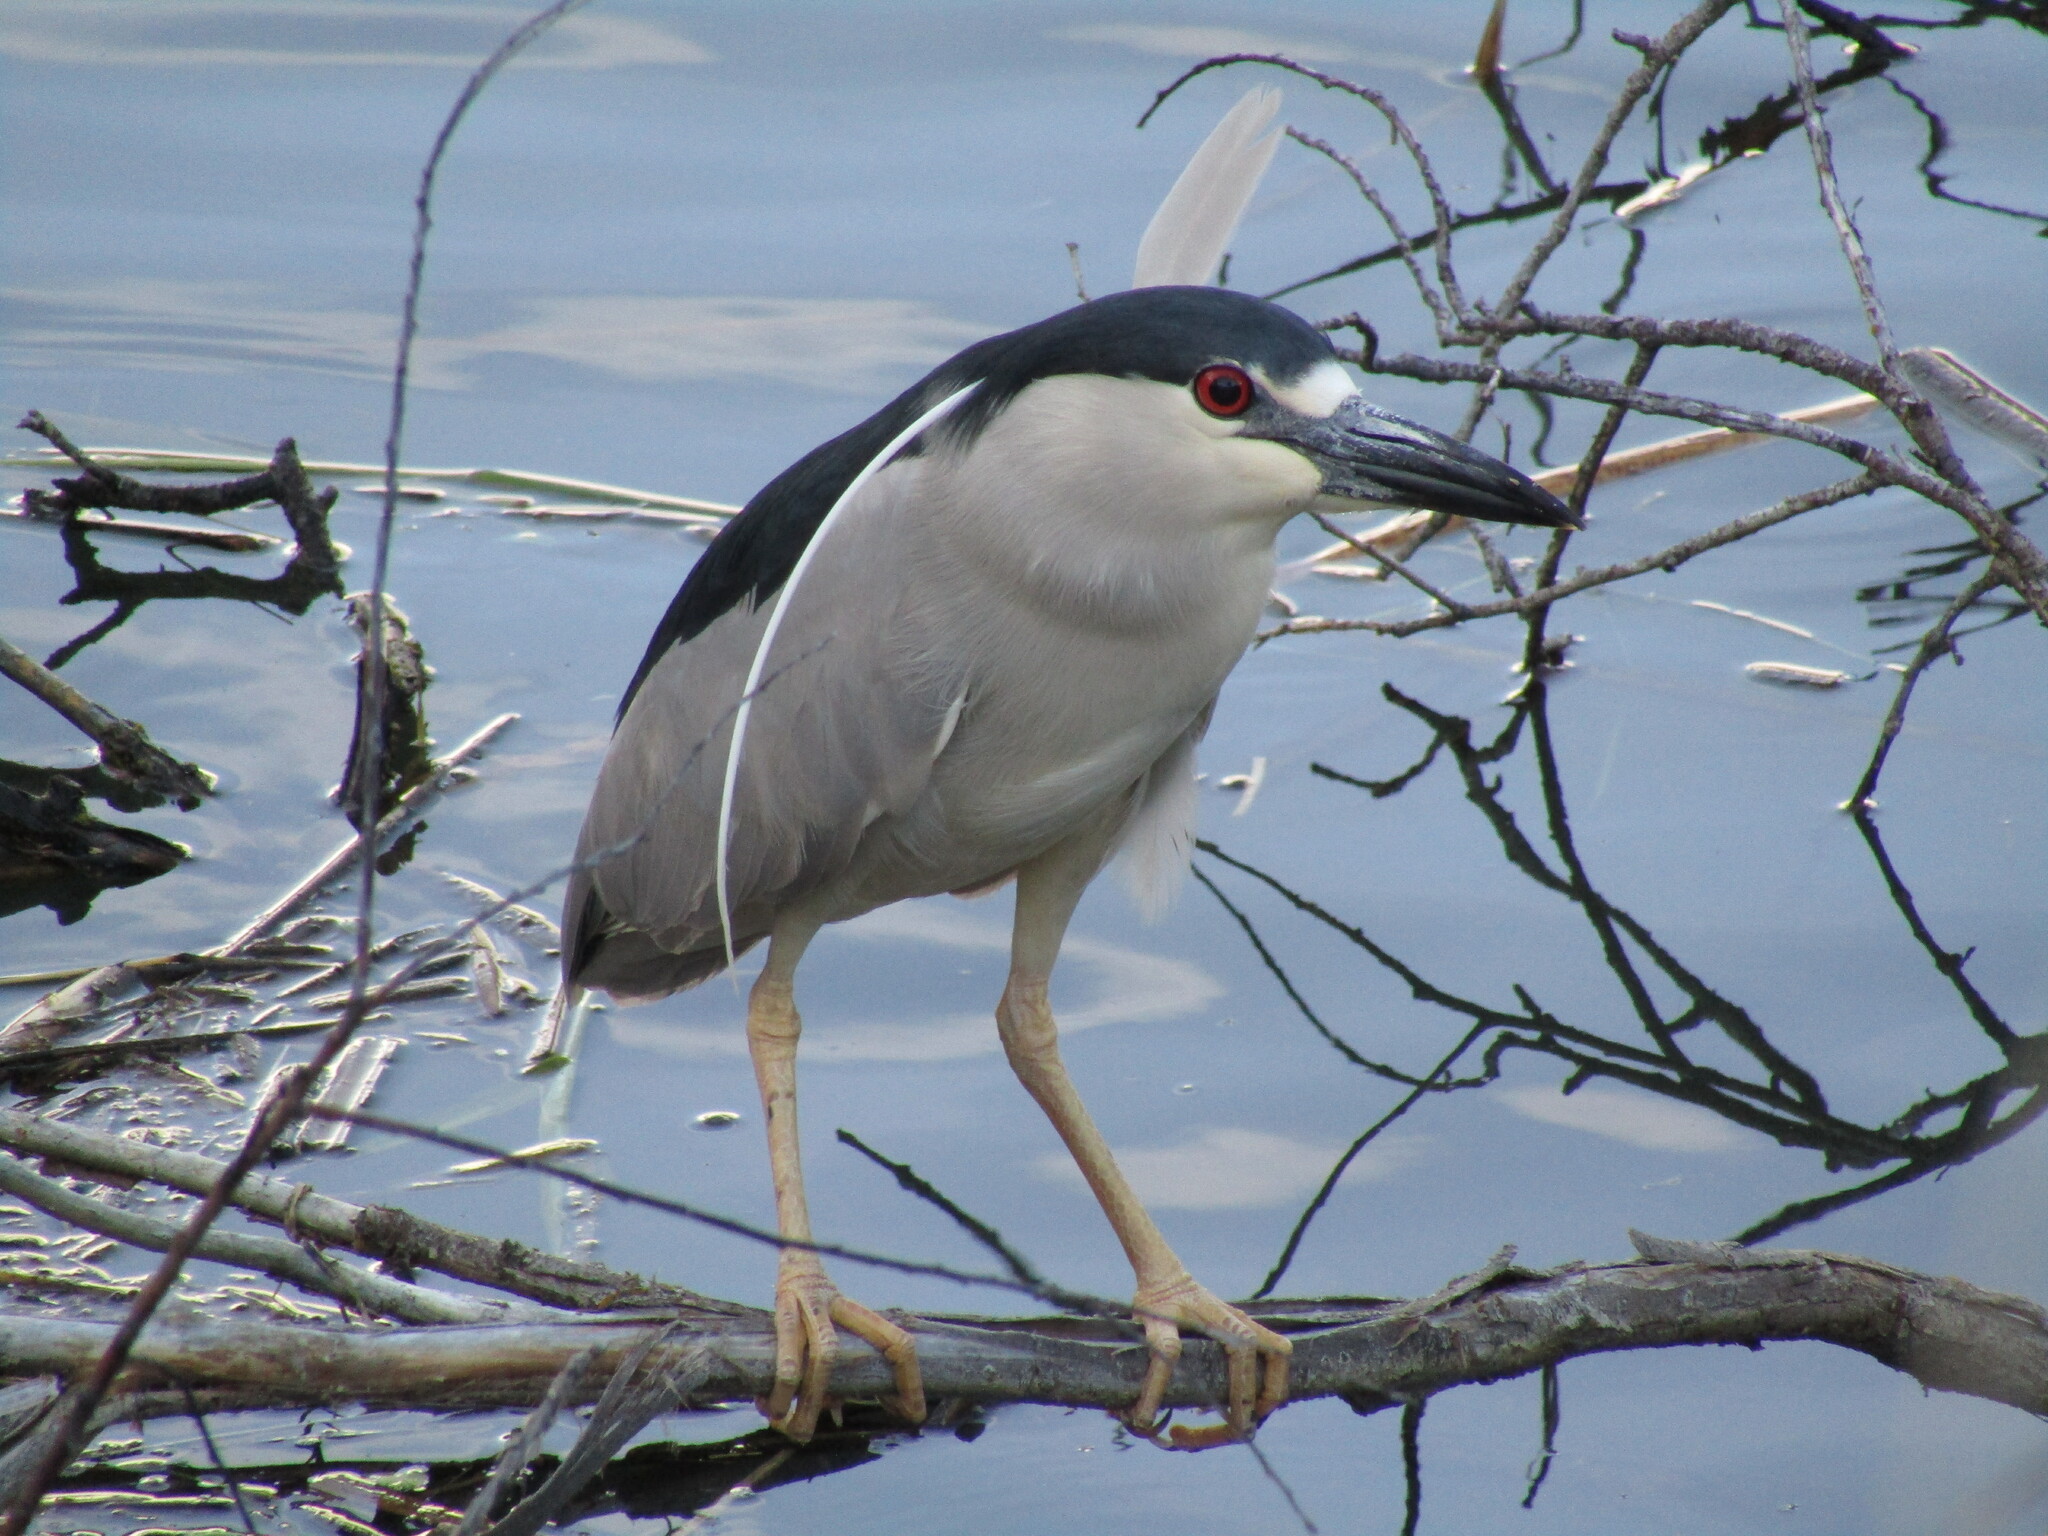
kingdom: Animalia
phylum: Chordata
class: Aves
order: Pelecaniformes
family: Ardeidae
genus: Nycticorax
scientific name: Nycticorax nycticorax
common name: Black-crowned night heron
